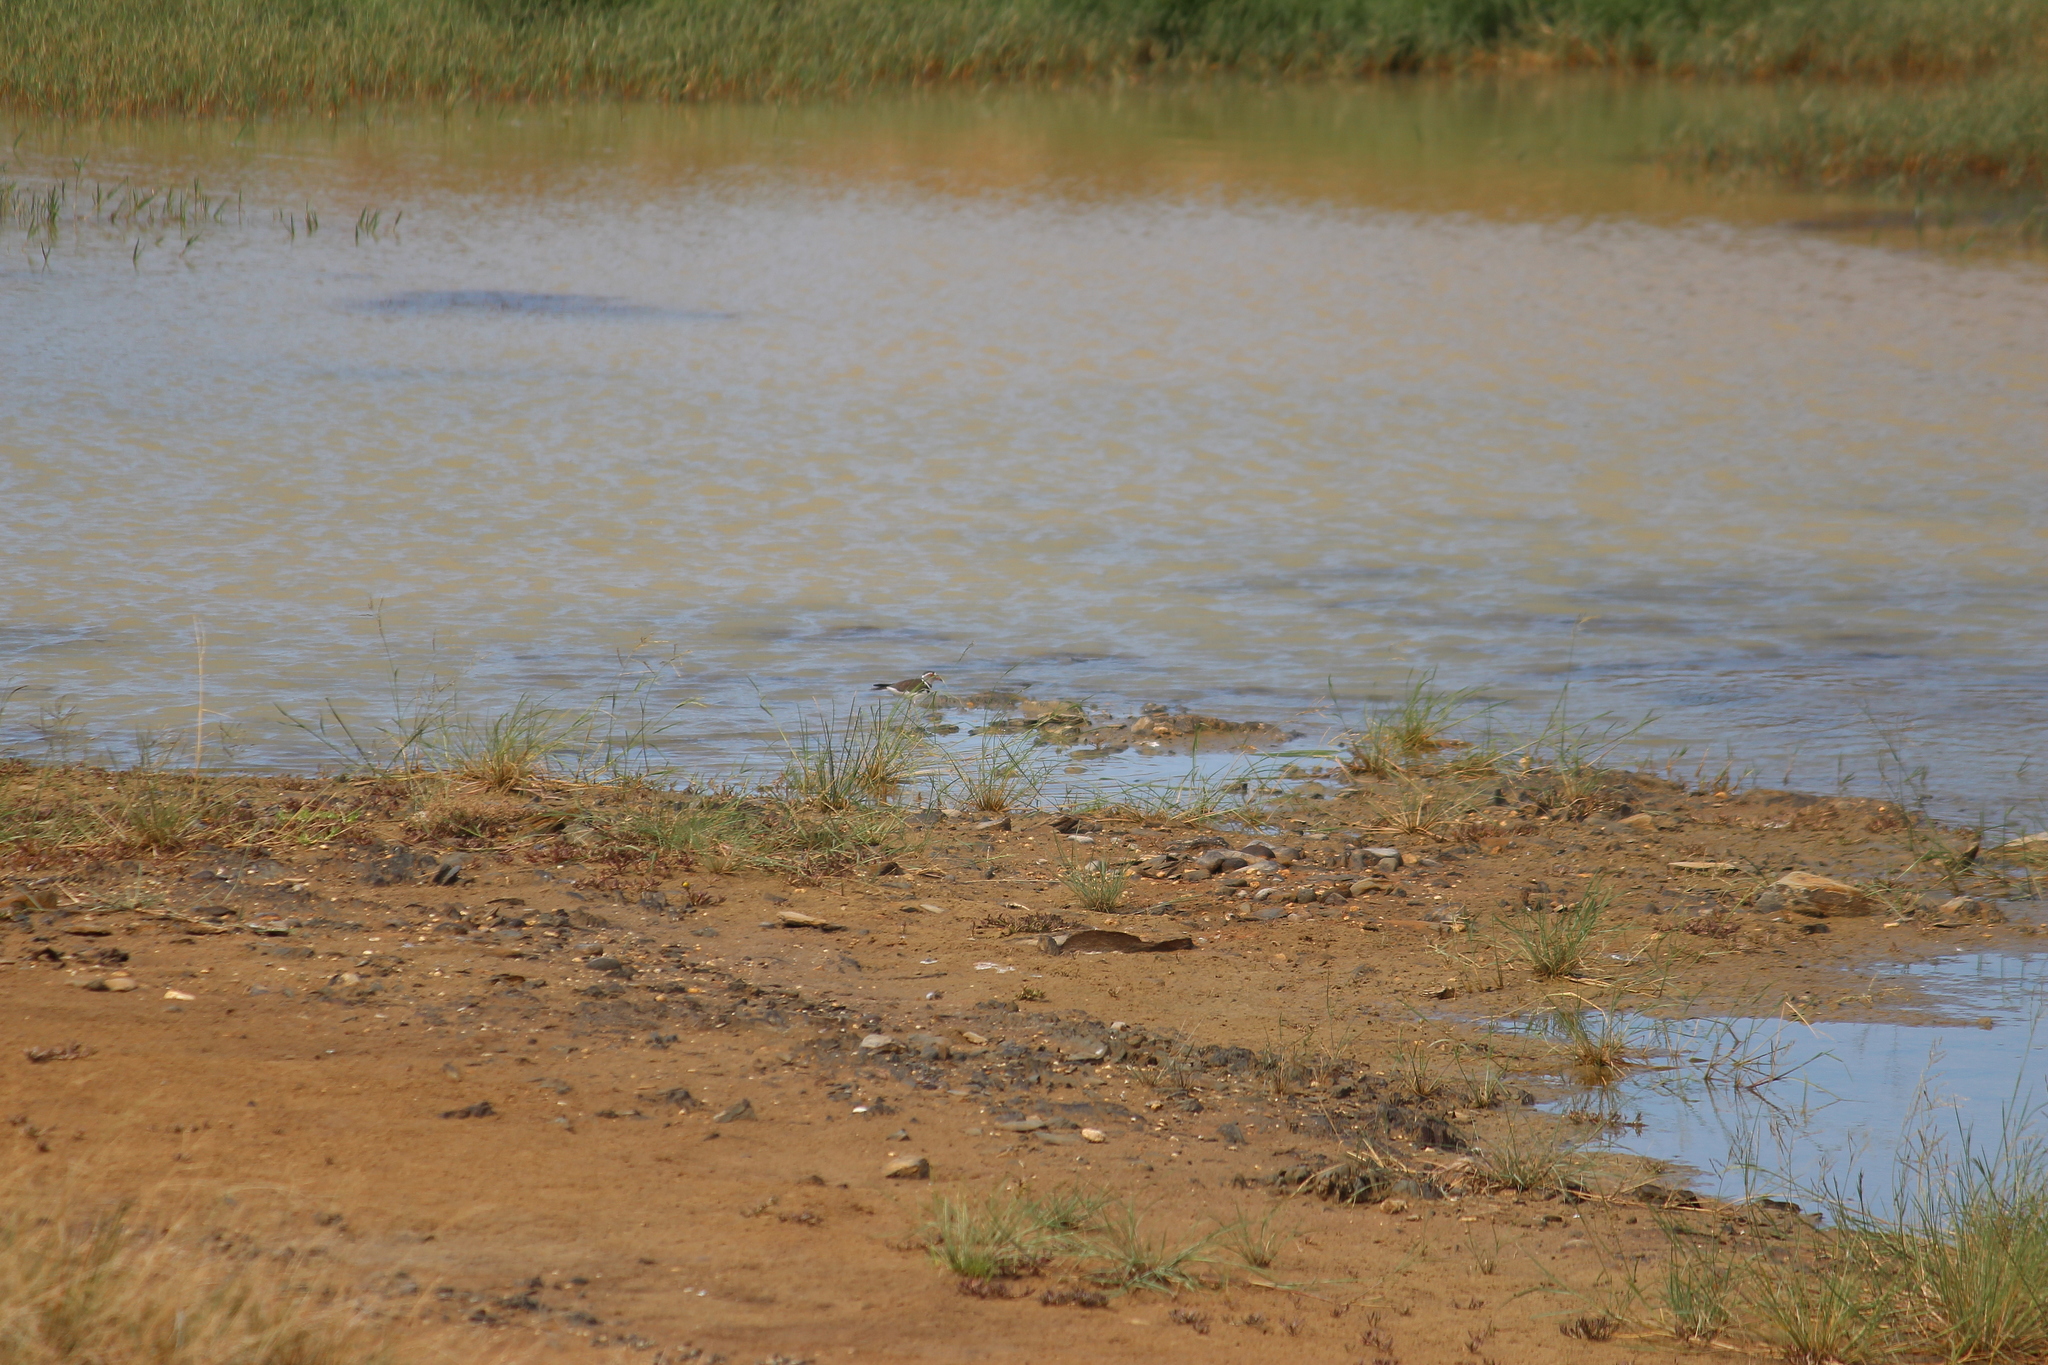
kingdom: Animalia
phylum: Chordata
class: Aves
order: Charadriiformes
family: Charadriidae
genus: Charadrius
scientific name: Charadrius tricollaris
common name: Three-banded plover
